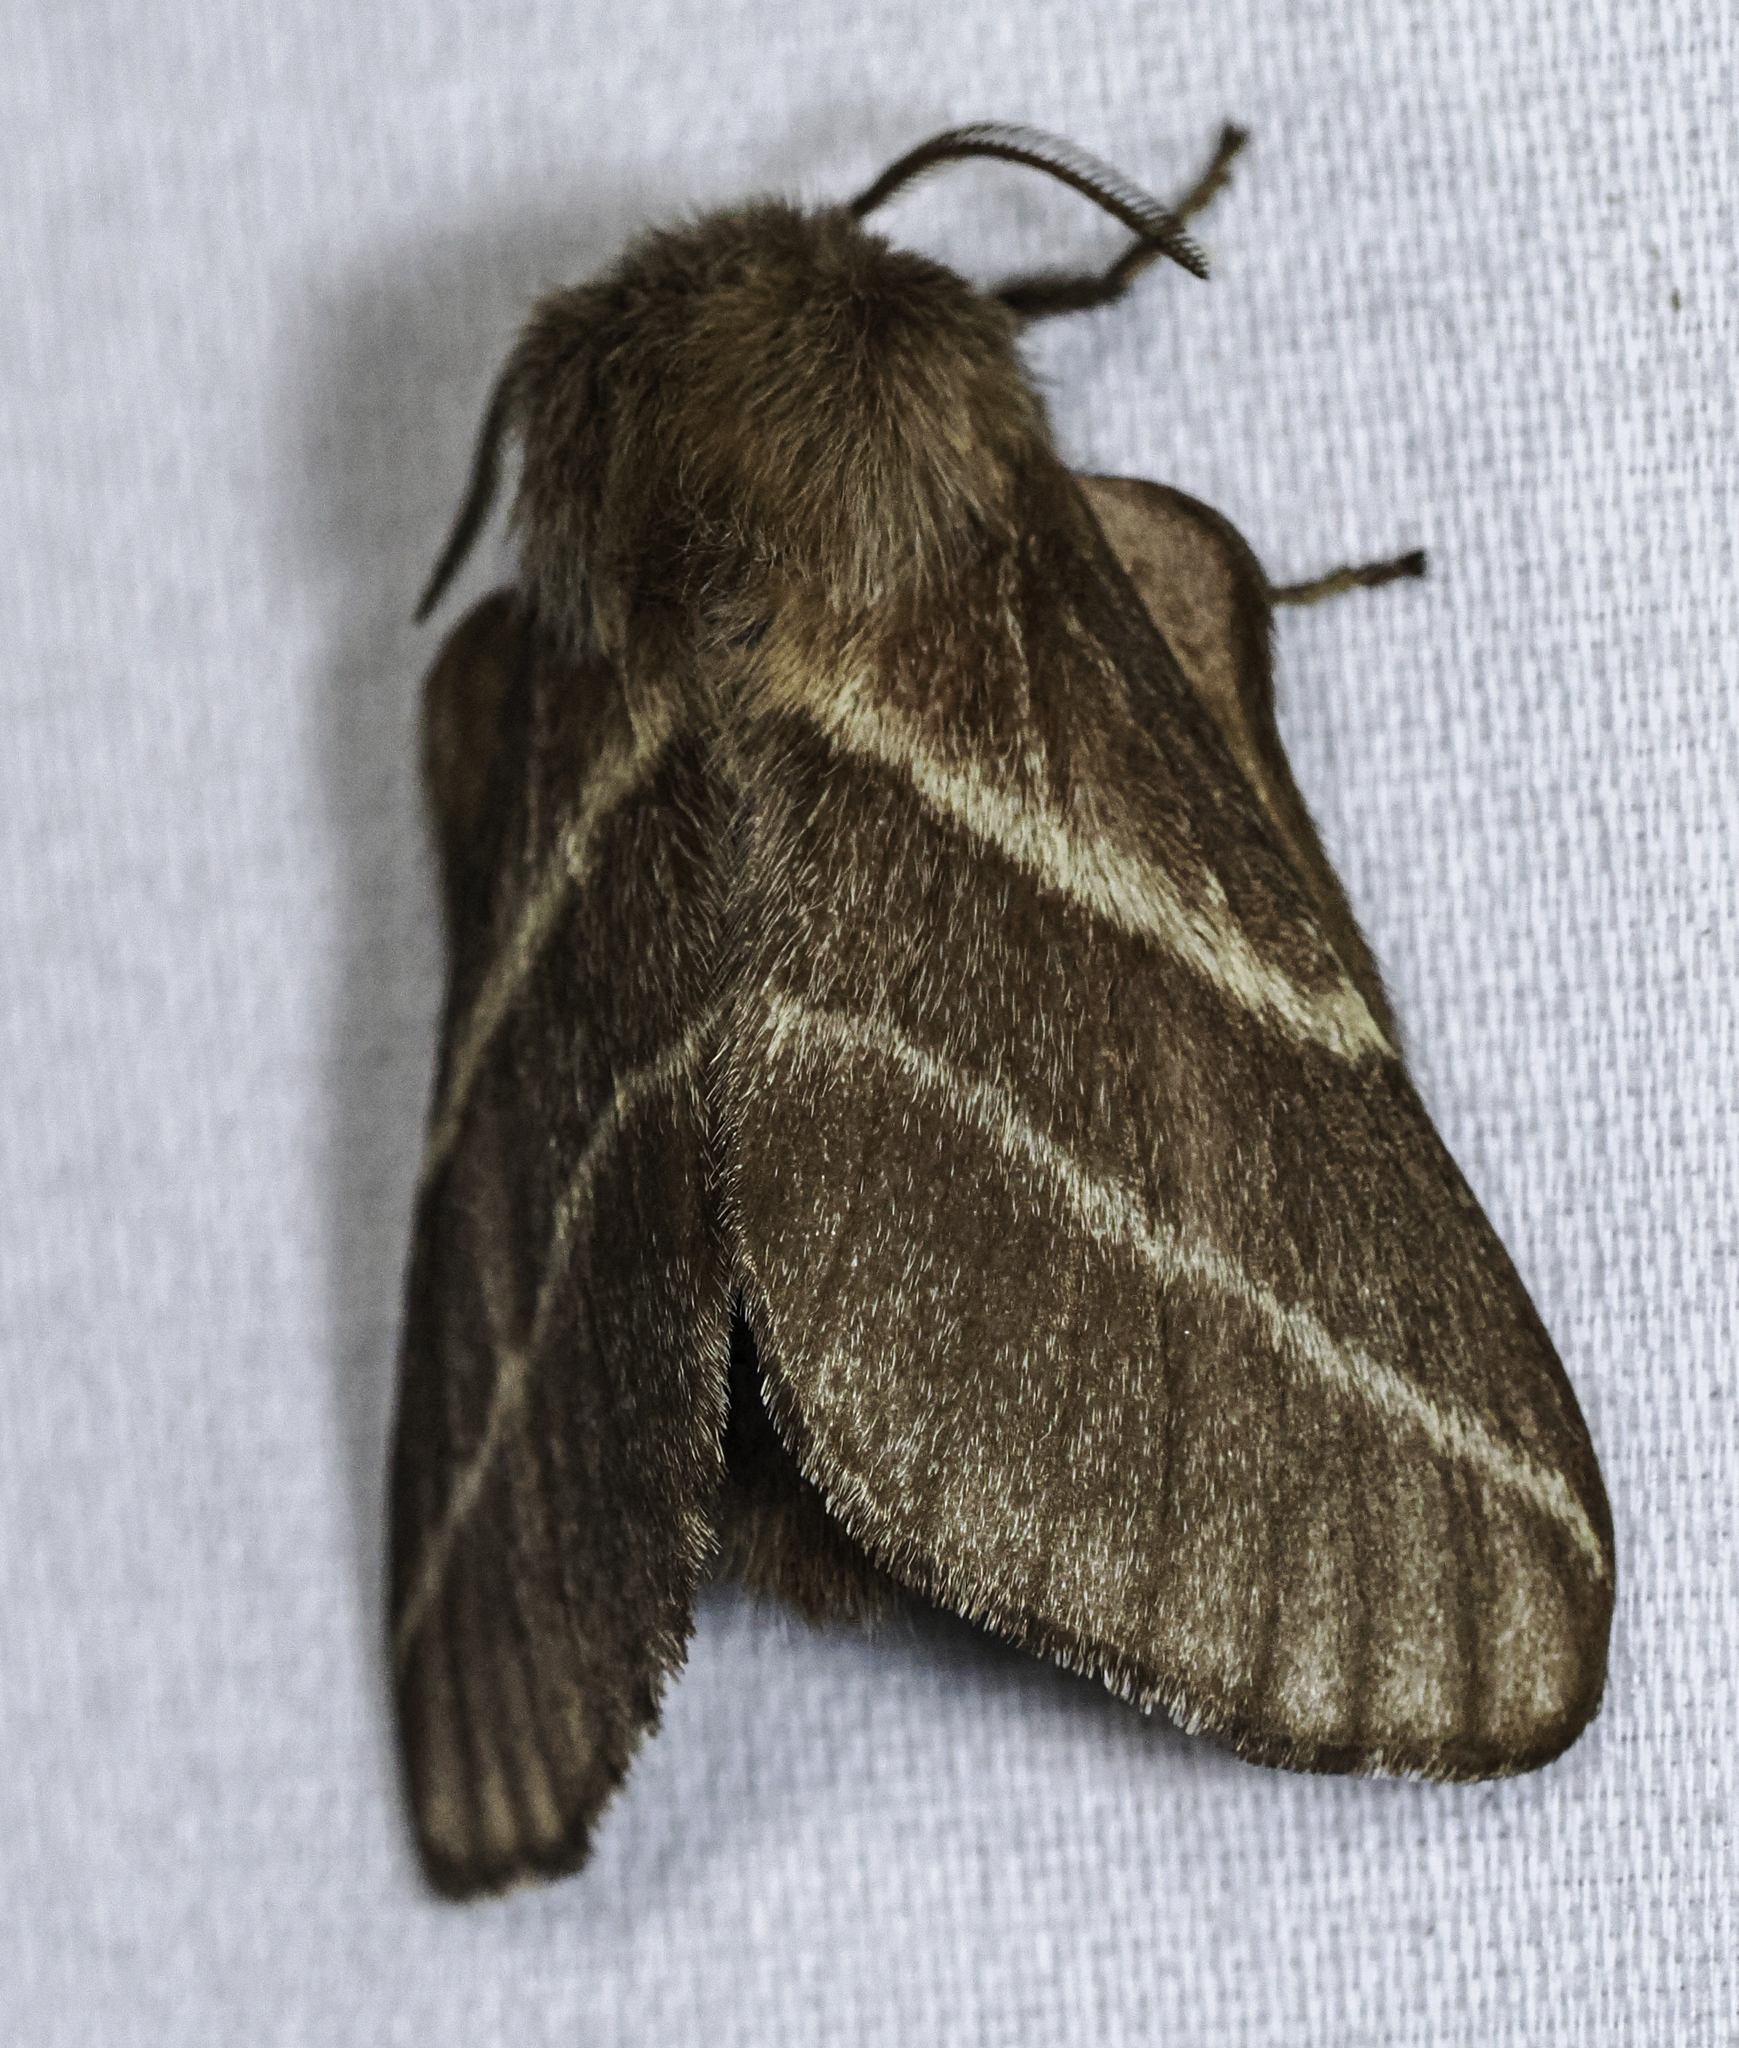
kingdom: Animalia
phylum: Arthropoda
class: Insecta
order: Lepidoptera
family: Lasiocampidae
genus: Malacosoma
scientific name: Malacosoma americana
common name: Eastern tent caterpillar moth
